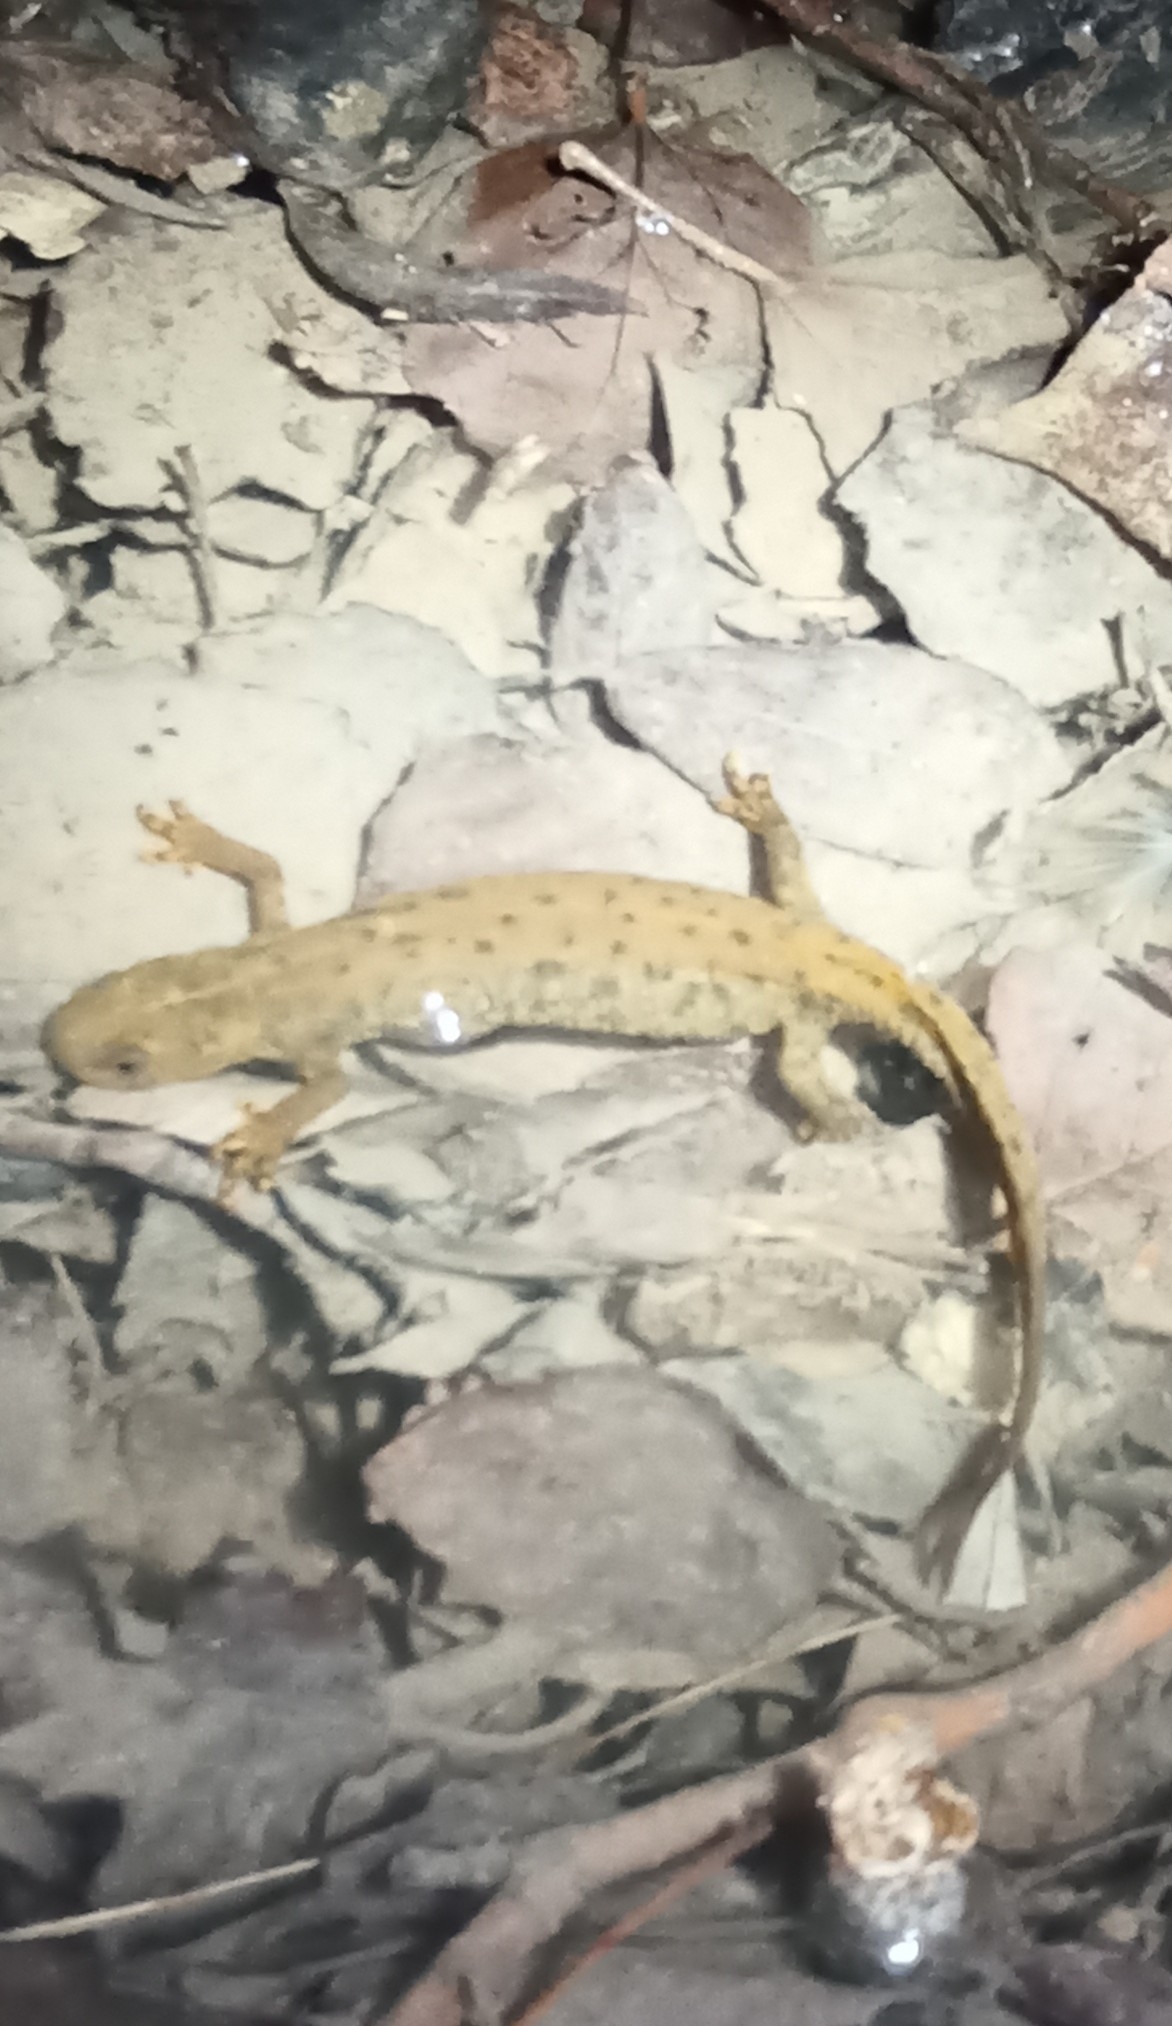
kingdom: Animalia
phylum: Chordata
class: Amphibia
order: Caudata
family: Salamandridae
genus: Triturus
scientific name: Triturus cristatus
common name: Crested newt
